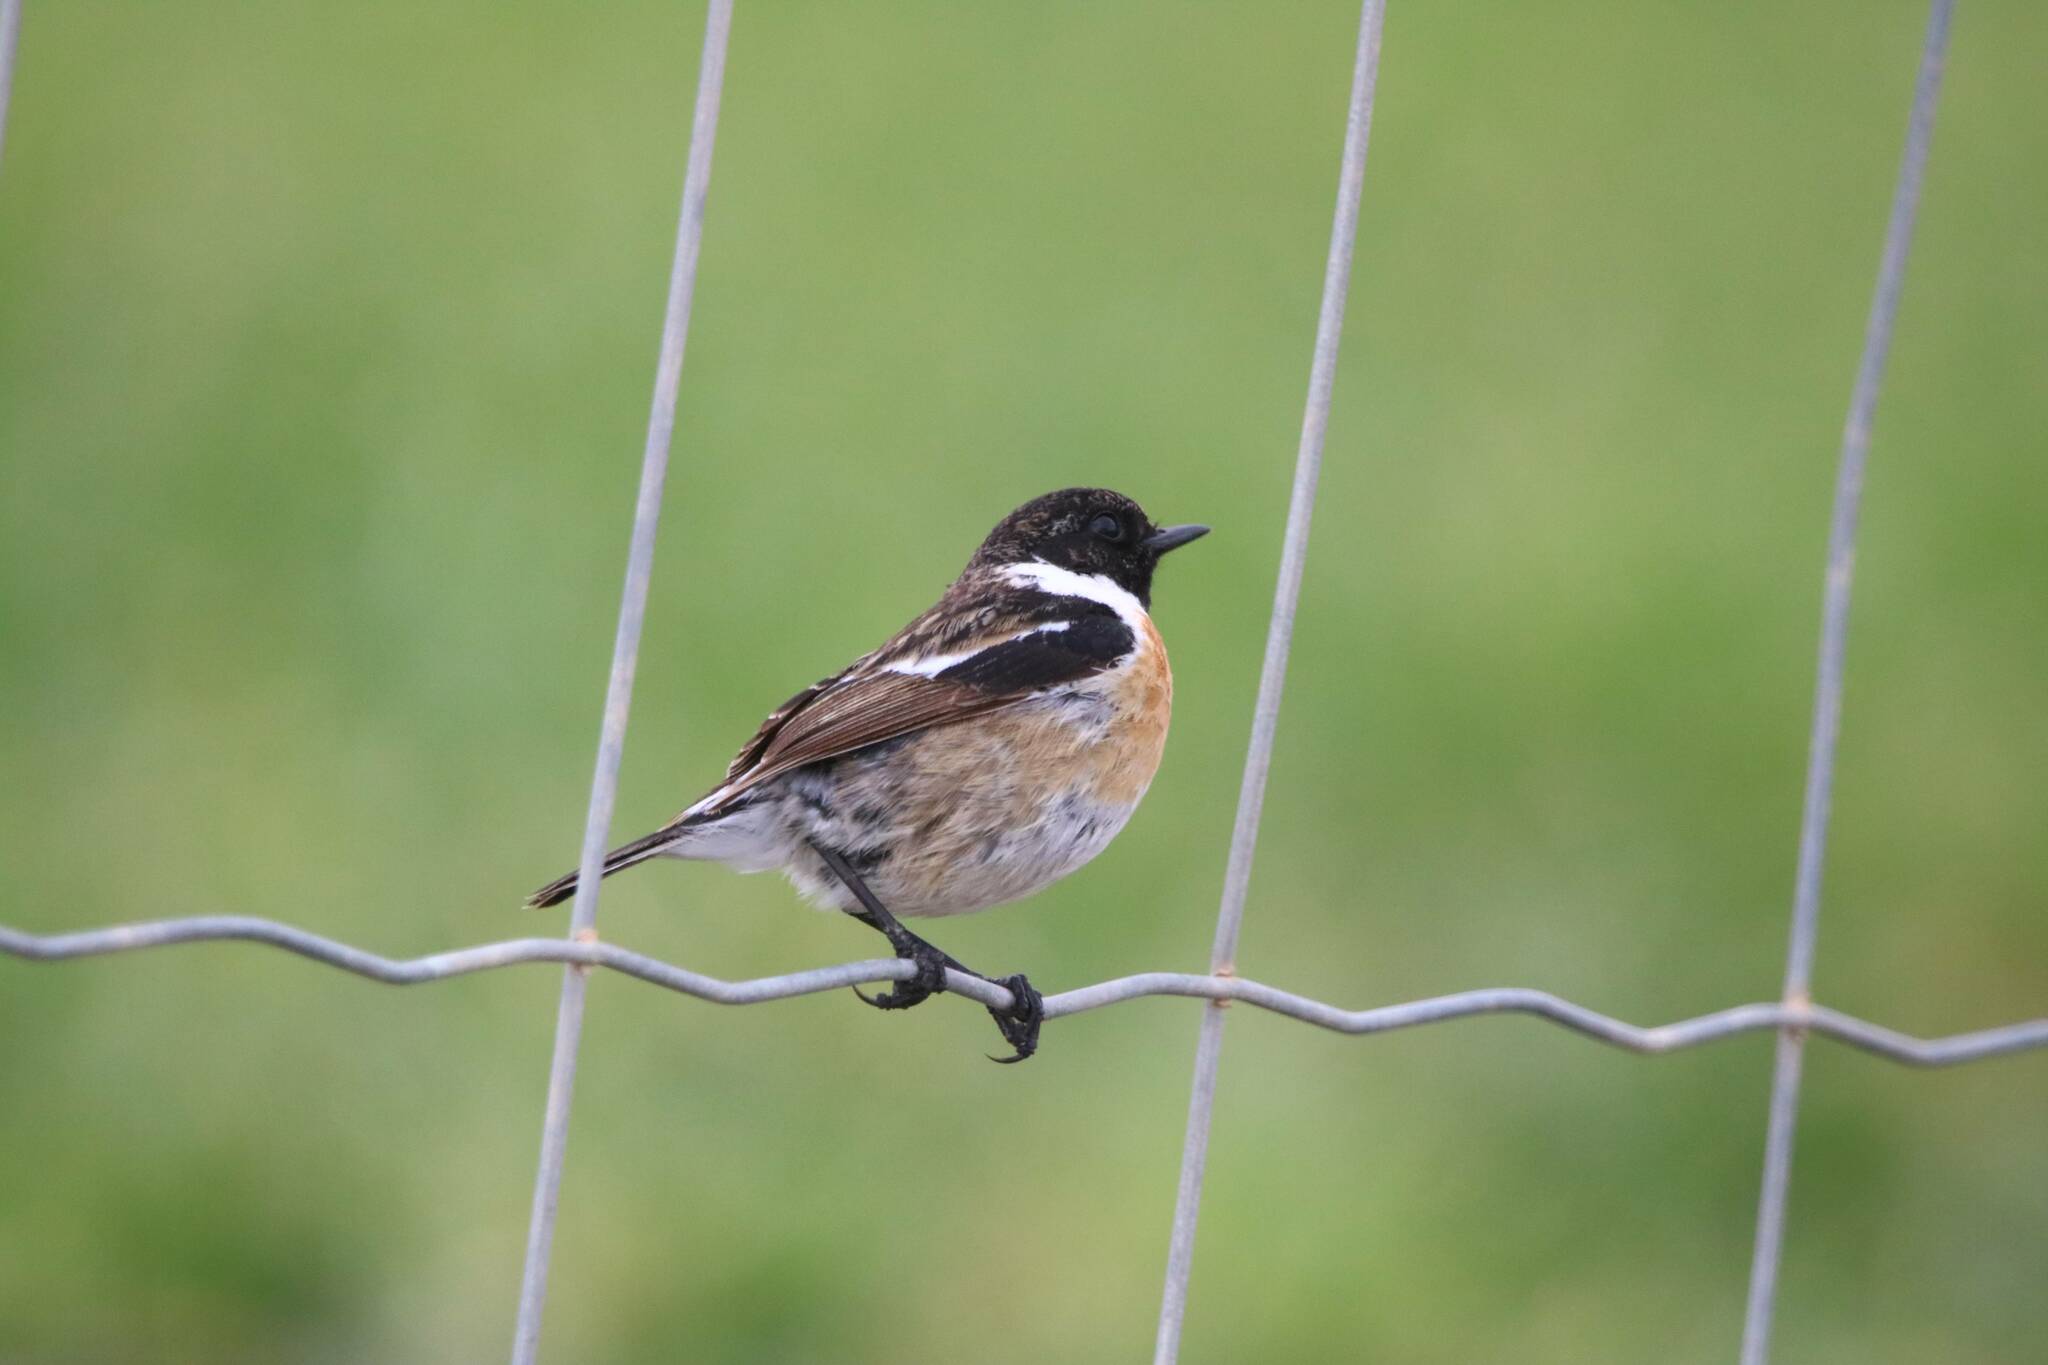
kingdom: Animalia
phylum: Chordata
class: Aves
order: Passeriformes
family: Muscicapidae
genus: Saxicola
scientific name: Saxicola rubicola
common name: European stonechat
